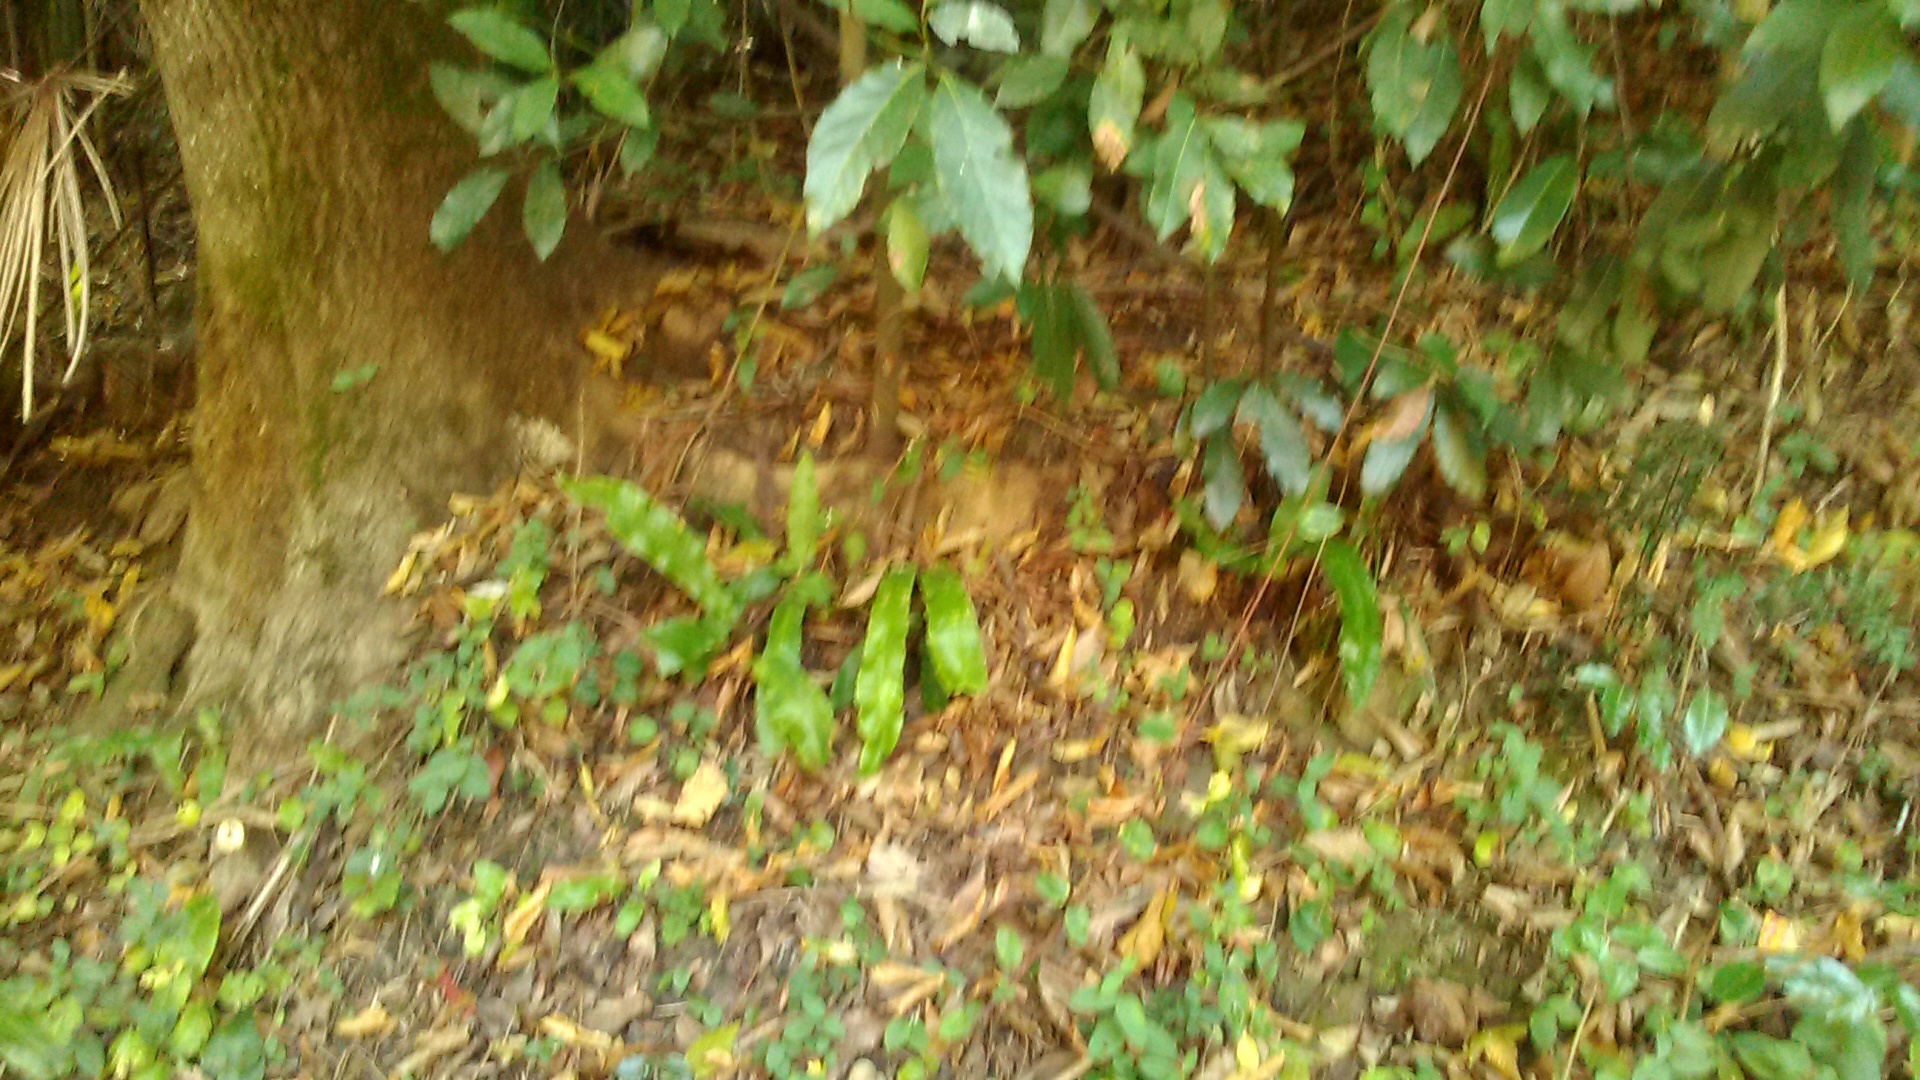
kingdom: Plantae
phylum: Tracheophyta
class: Polypodiopsida
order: Polypodiales
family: Aspleniaceae
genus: Asplenium
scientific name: Asplenium scolopendrium
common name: Hart's-tongue fern
